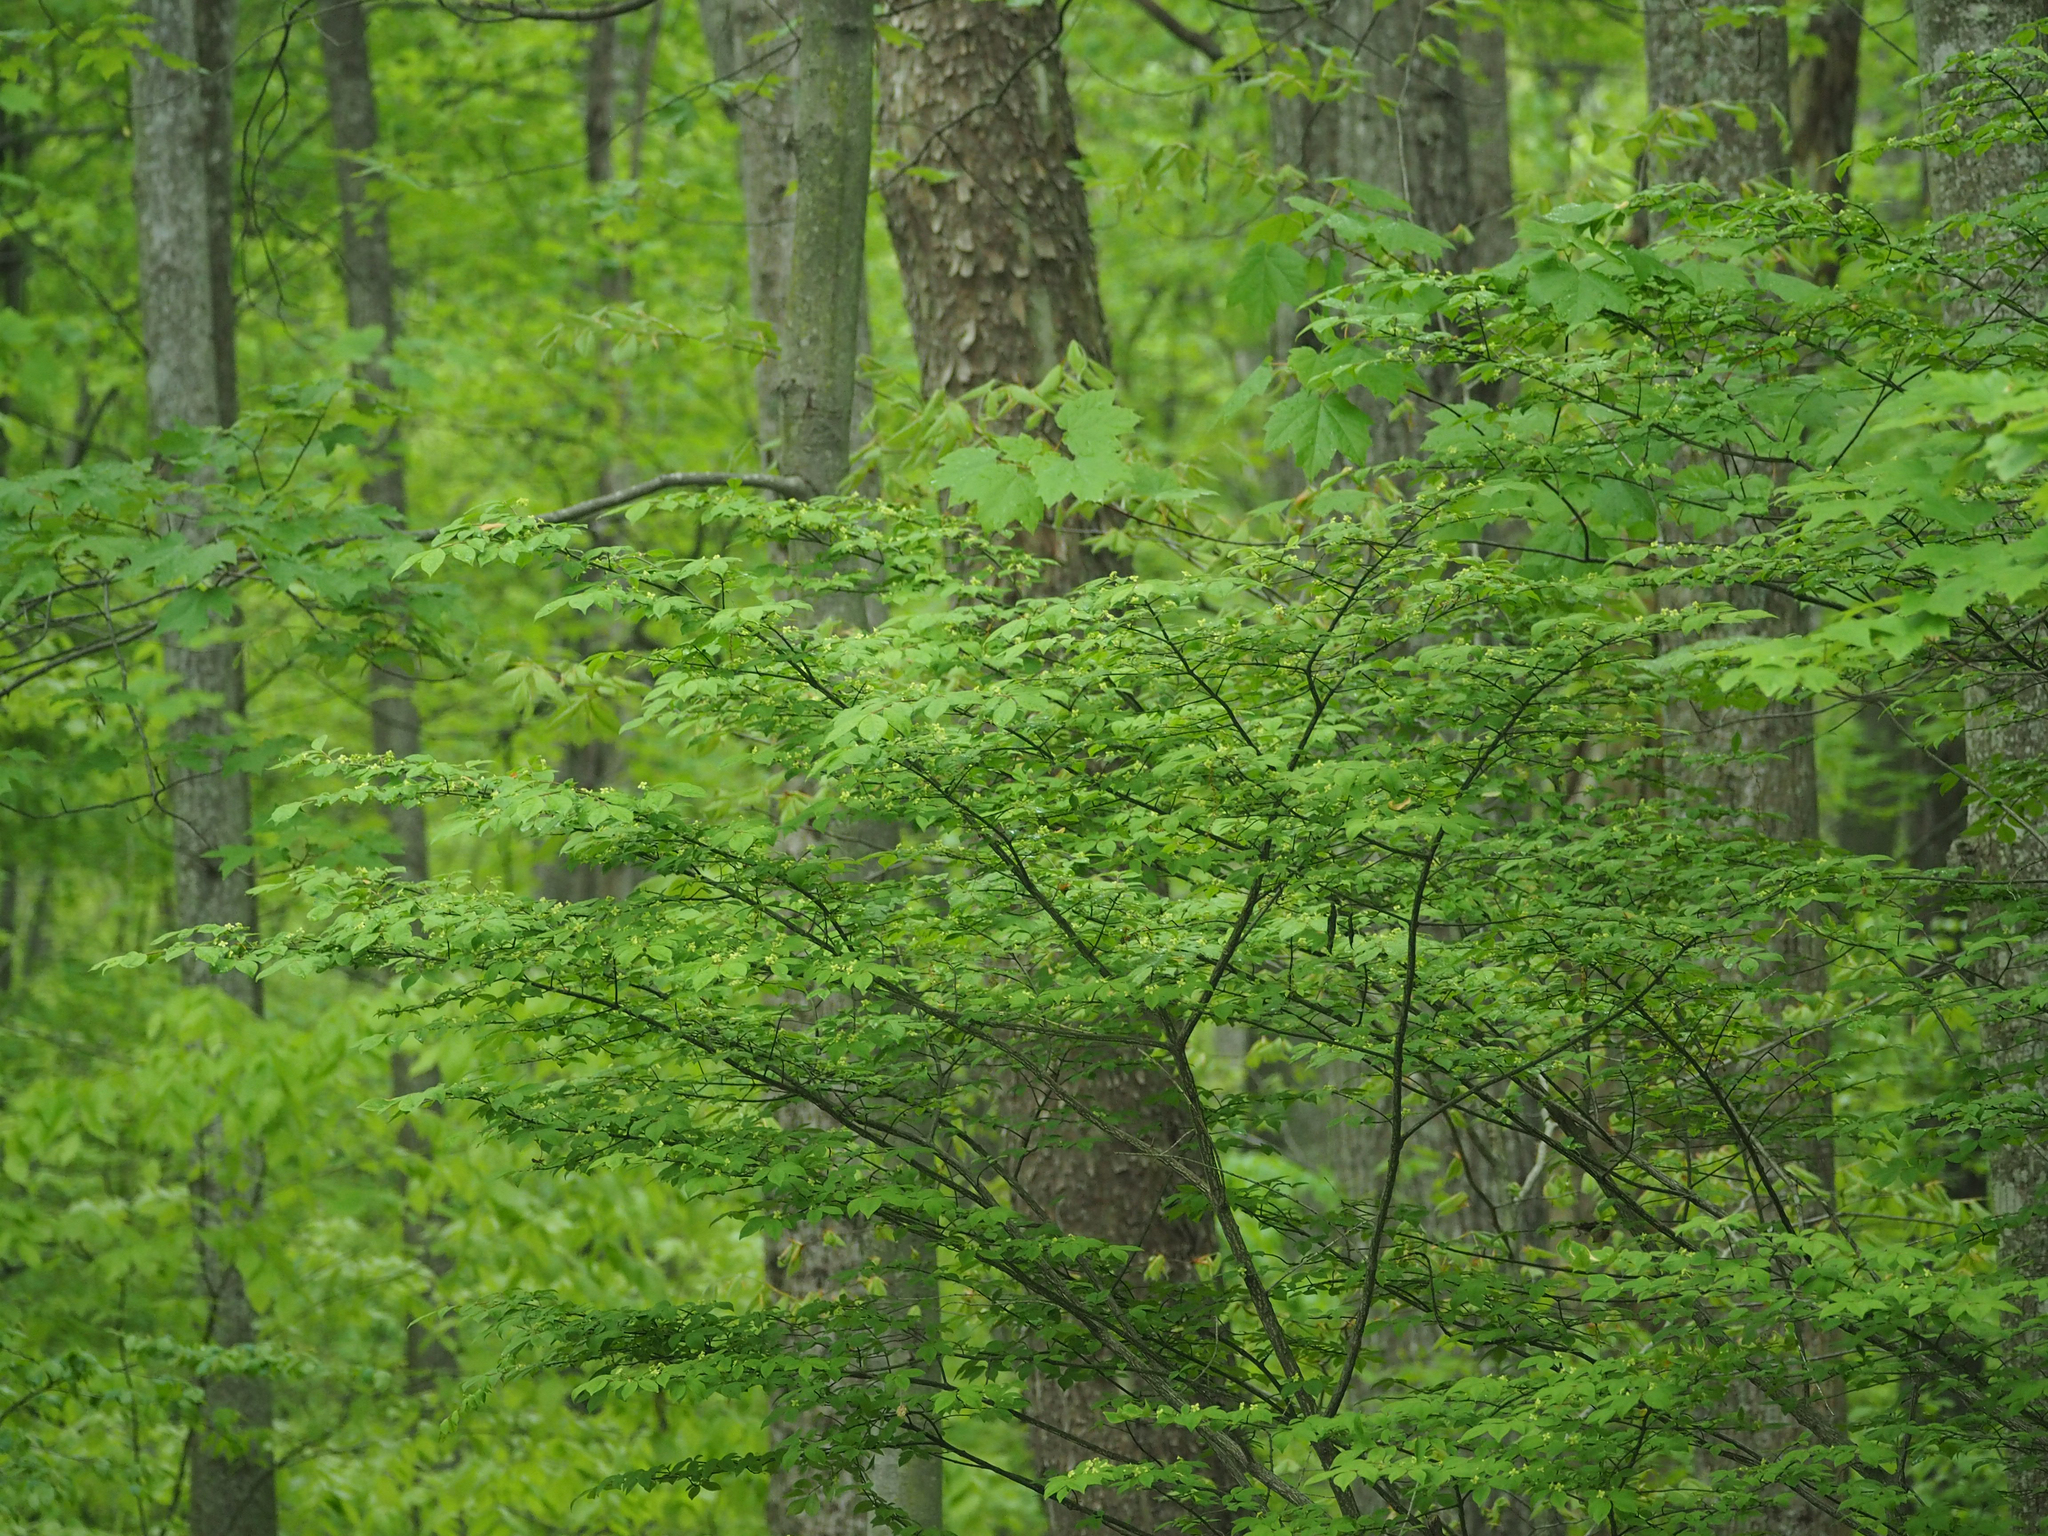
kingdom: Plantae
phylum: Tracheophyta
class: Magnoliopsida
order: Celastrales
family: Celastraceae
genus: Euonymus
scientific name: Euonymus alatus
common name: Winged euonymus
